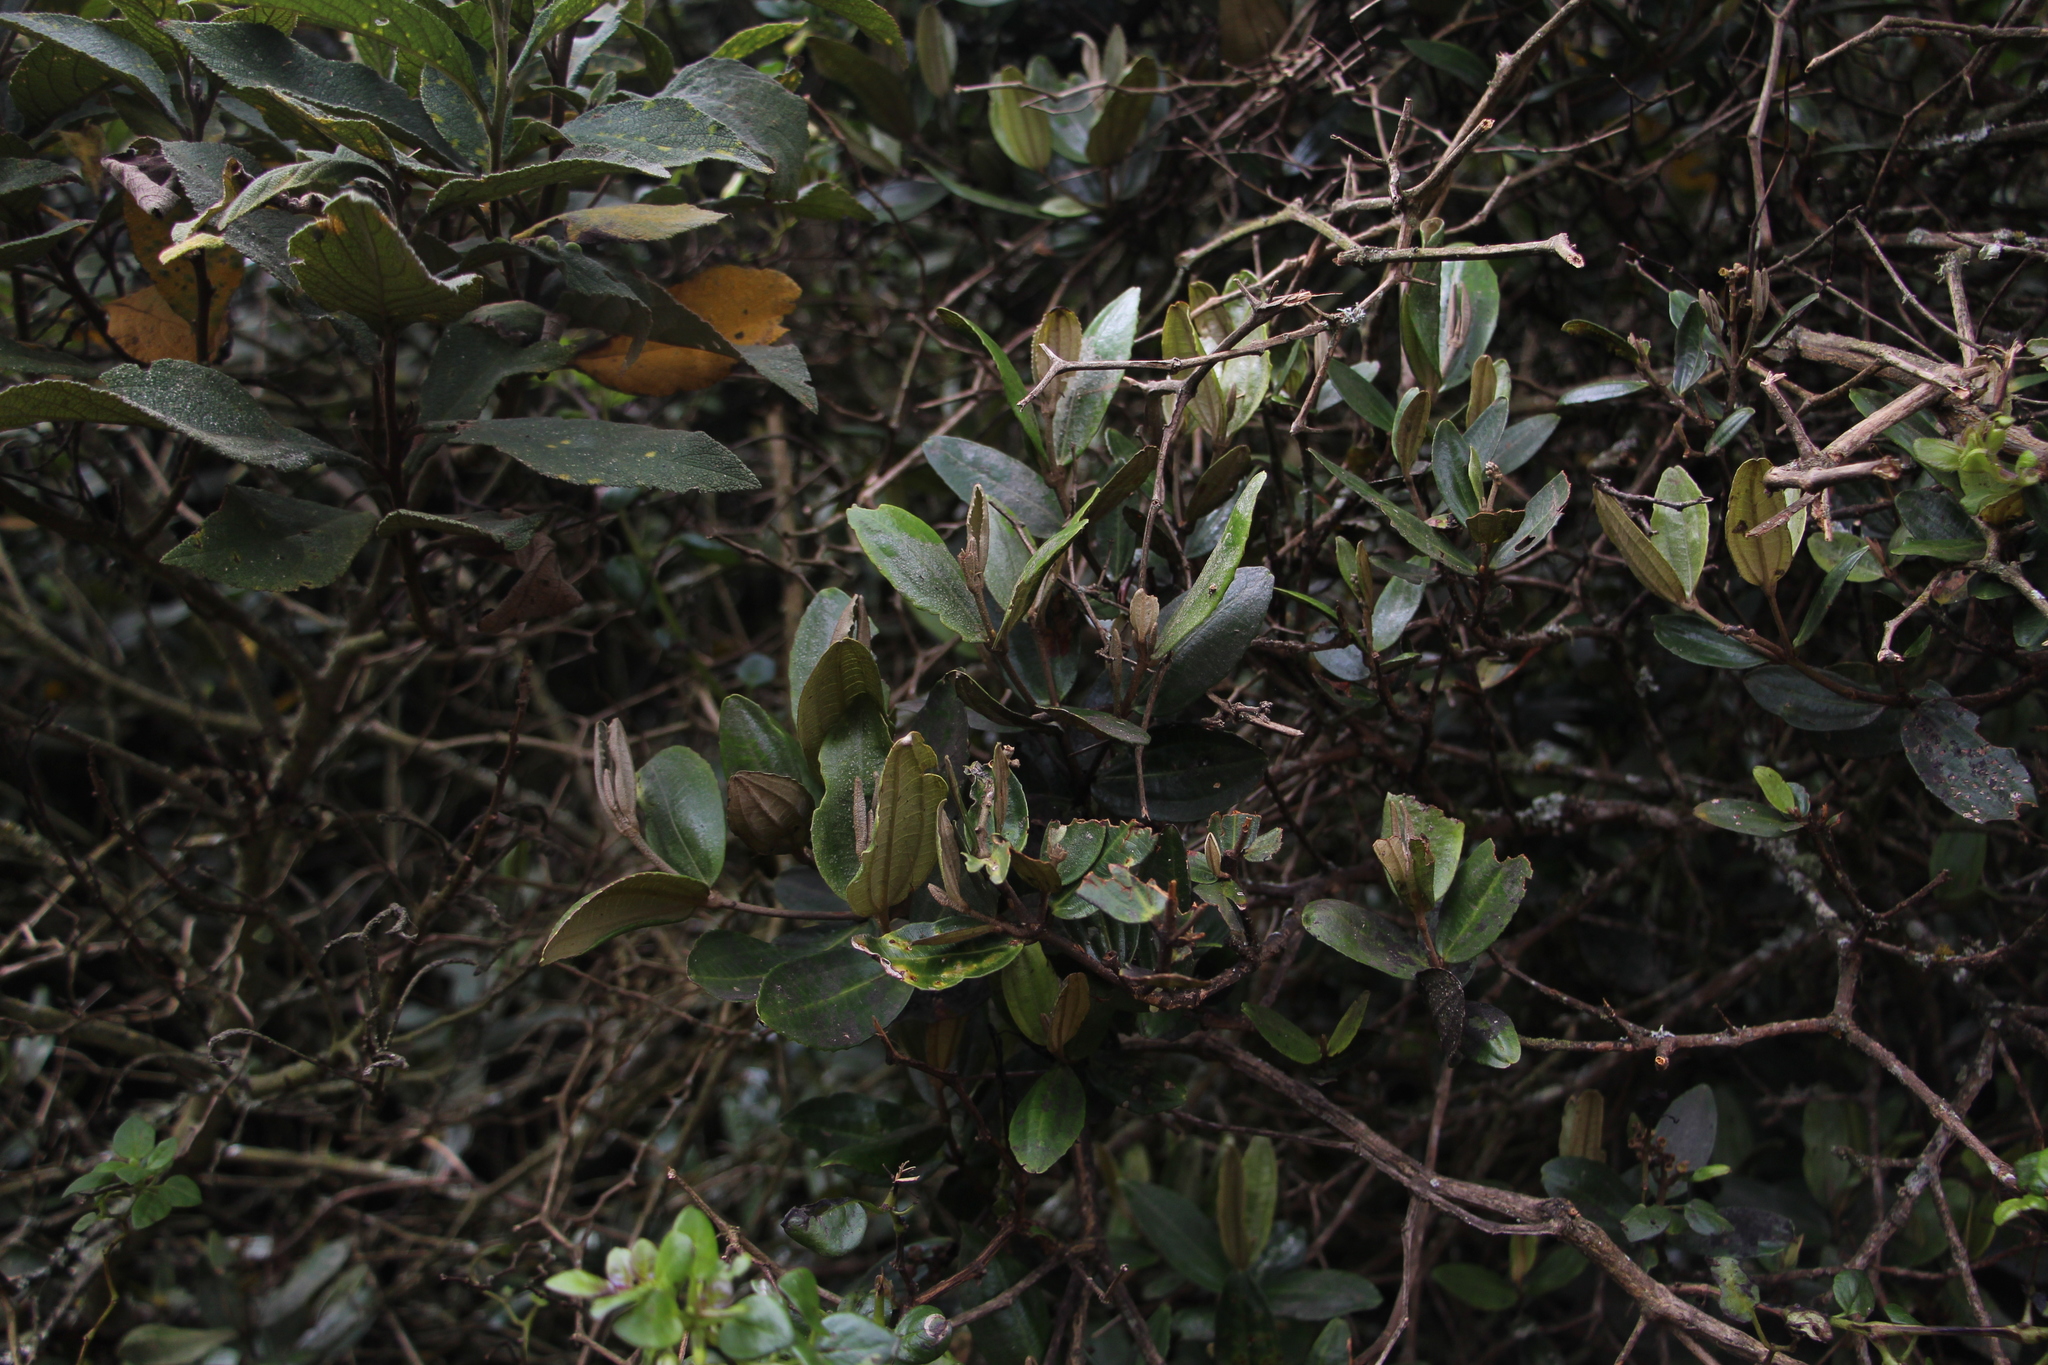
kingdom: Plantae
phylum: Tracheophyta
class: Magnoliopsida
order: Myrtales
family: Melastomataceae
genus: Miconia
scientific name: Miconia squamulosa
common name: Squamulose maya
